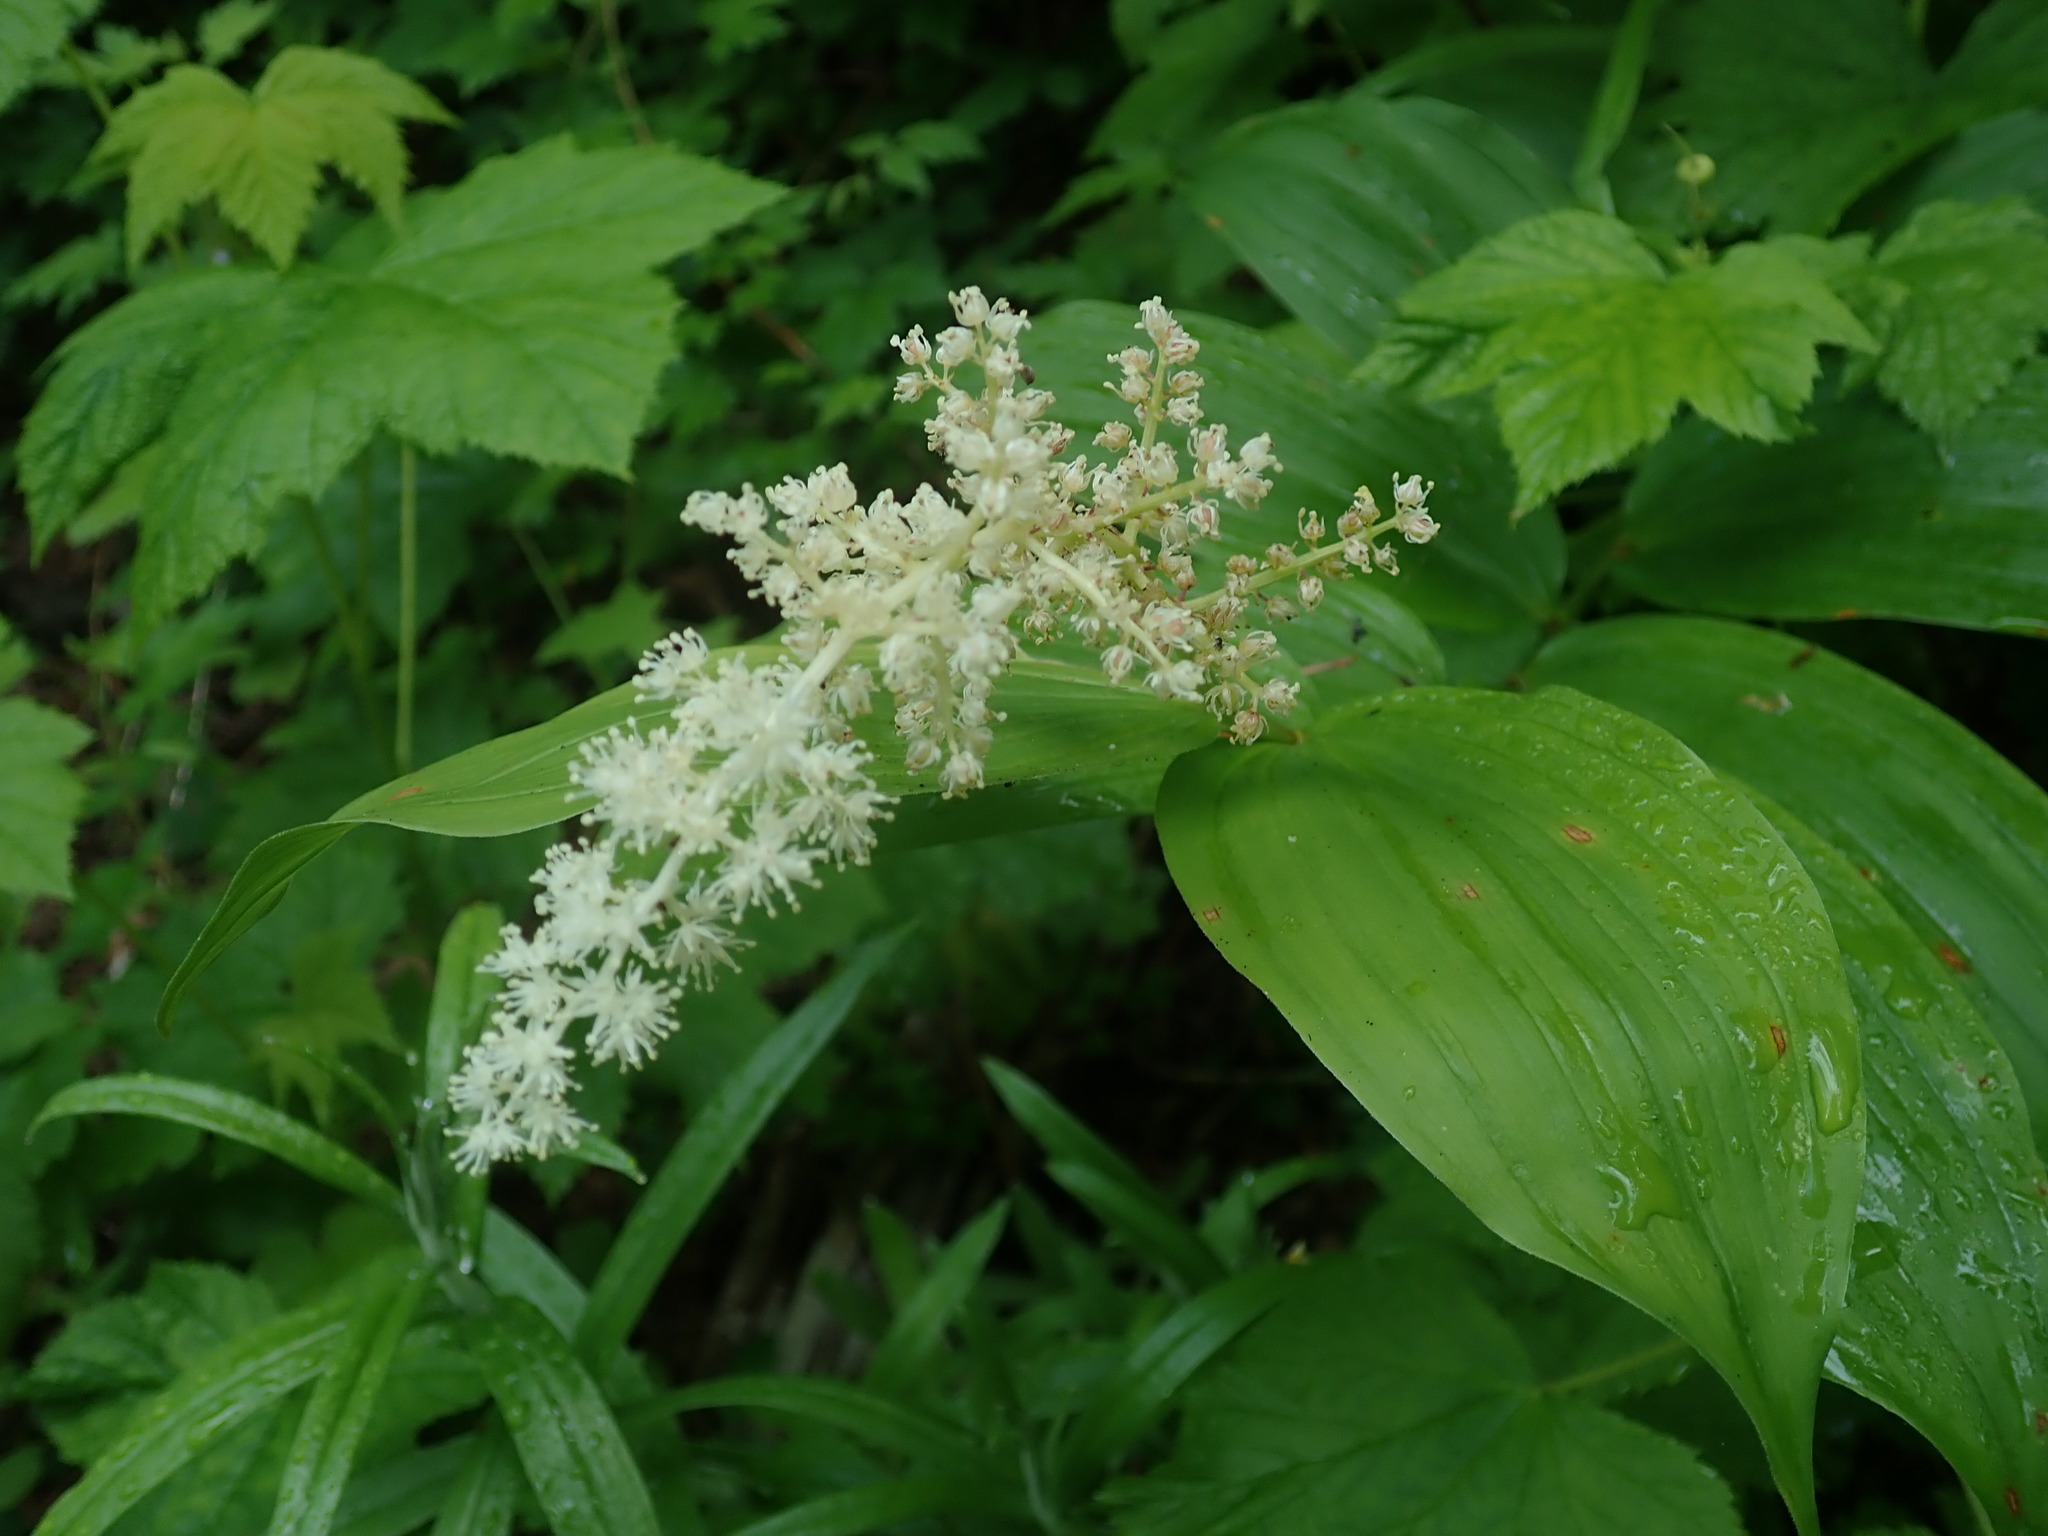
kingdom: Plantae
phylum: Tracheophyta
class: Liliopsida
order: Asparagales
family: Asparagaceae
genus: Maianthemum
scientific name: Maianthemum racemosum
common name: False spikenard
